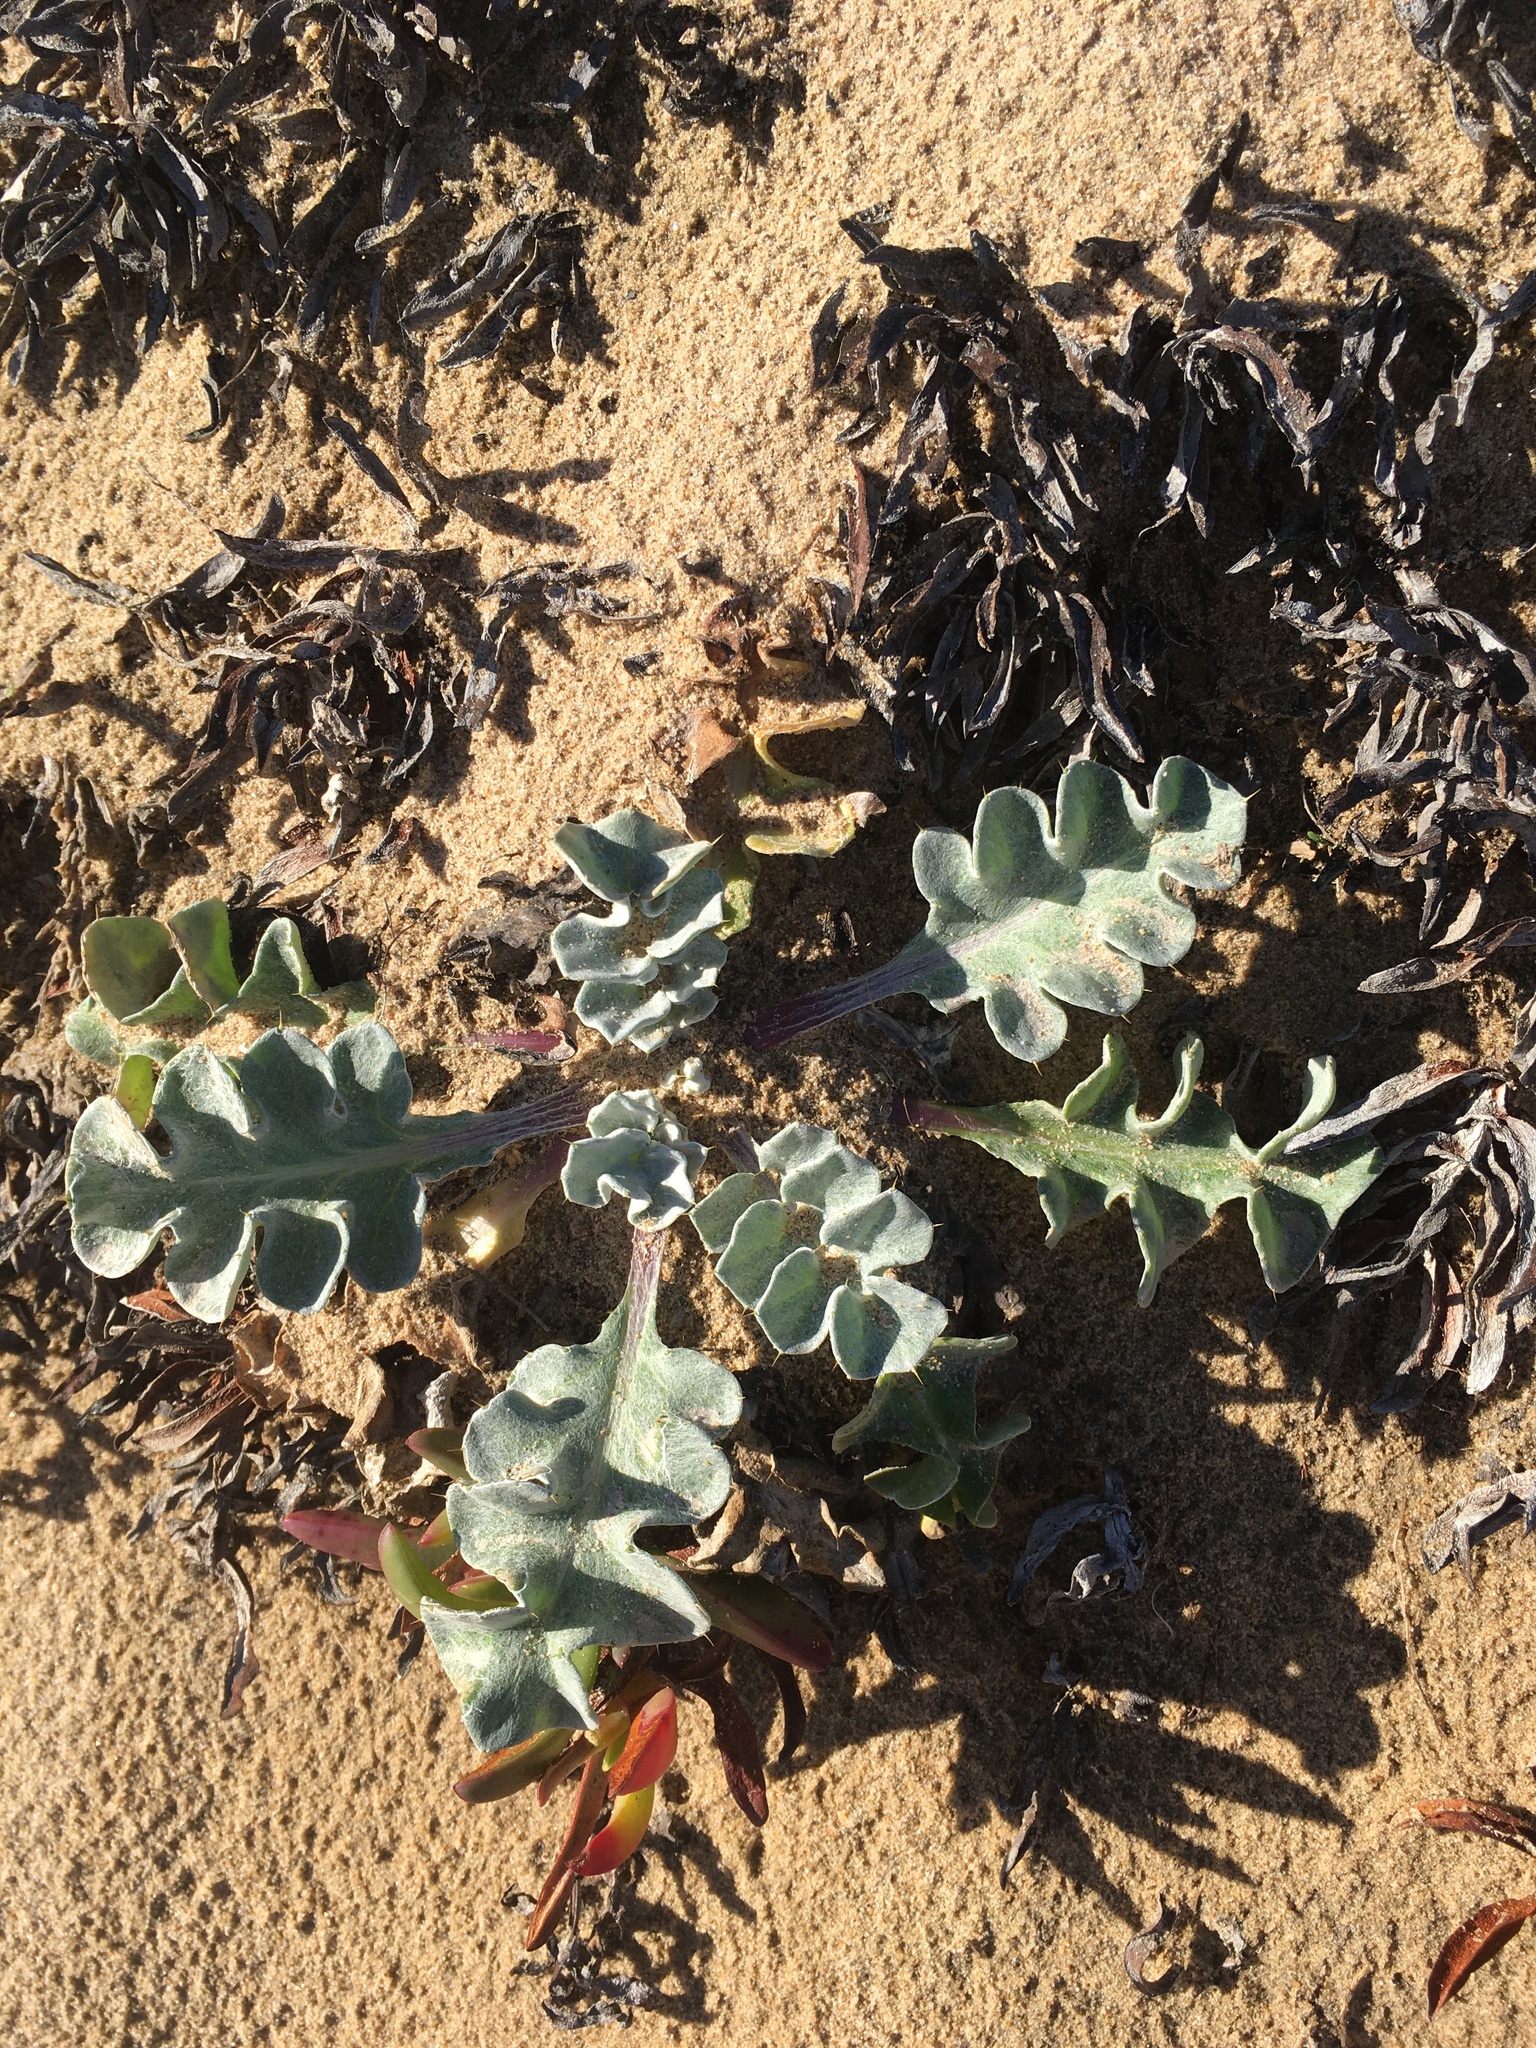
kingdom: Plantae
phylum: Tracheophyta
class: Magnoliopsida
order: Asterales
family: Asteraceae
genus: Cirsium
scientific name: Cirsium rhothophilum
